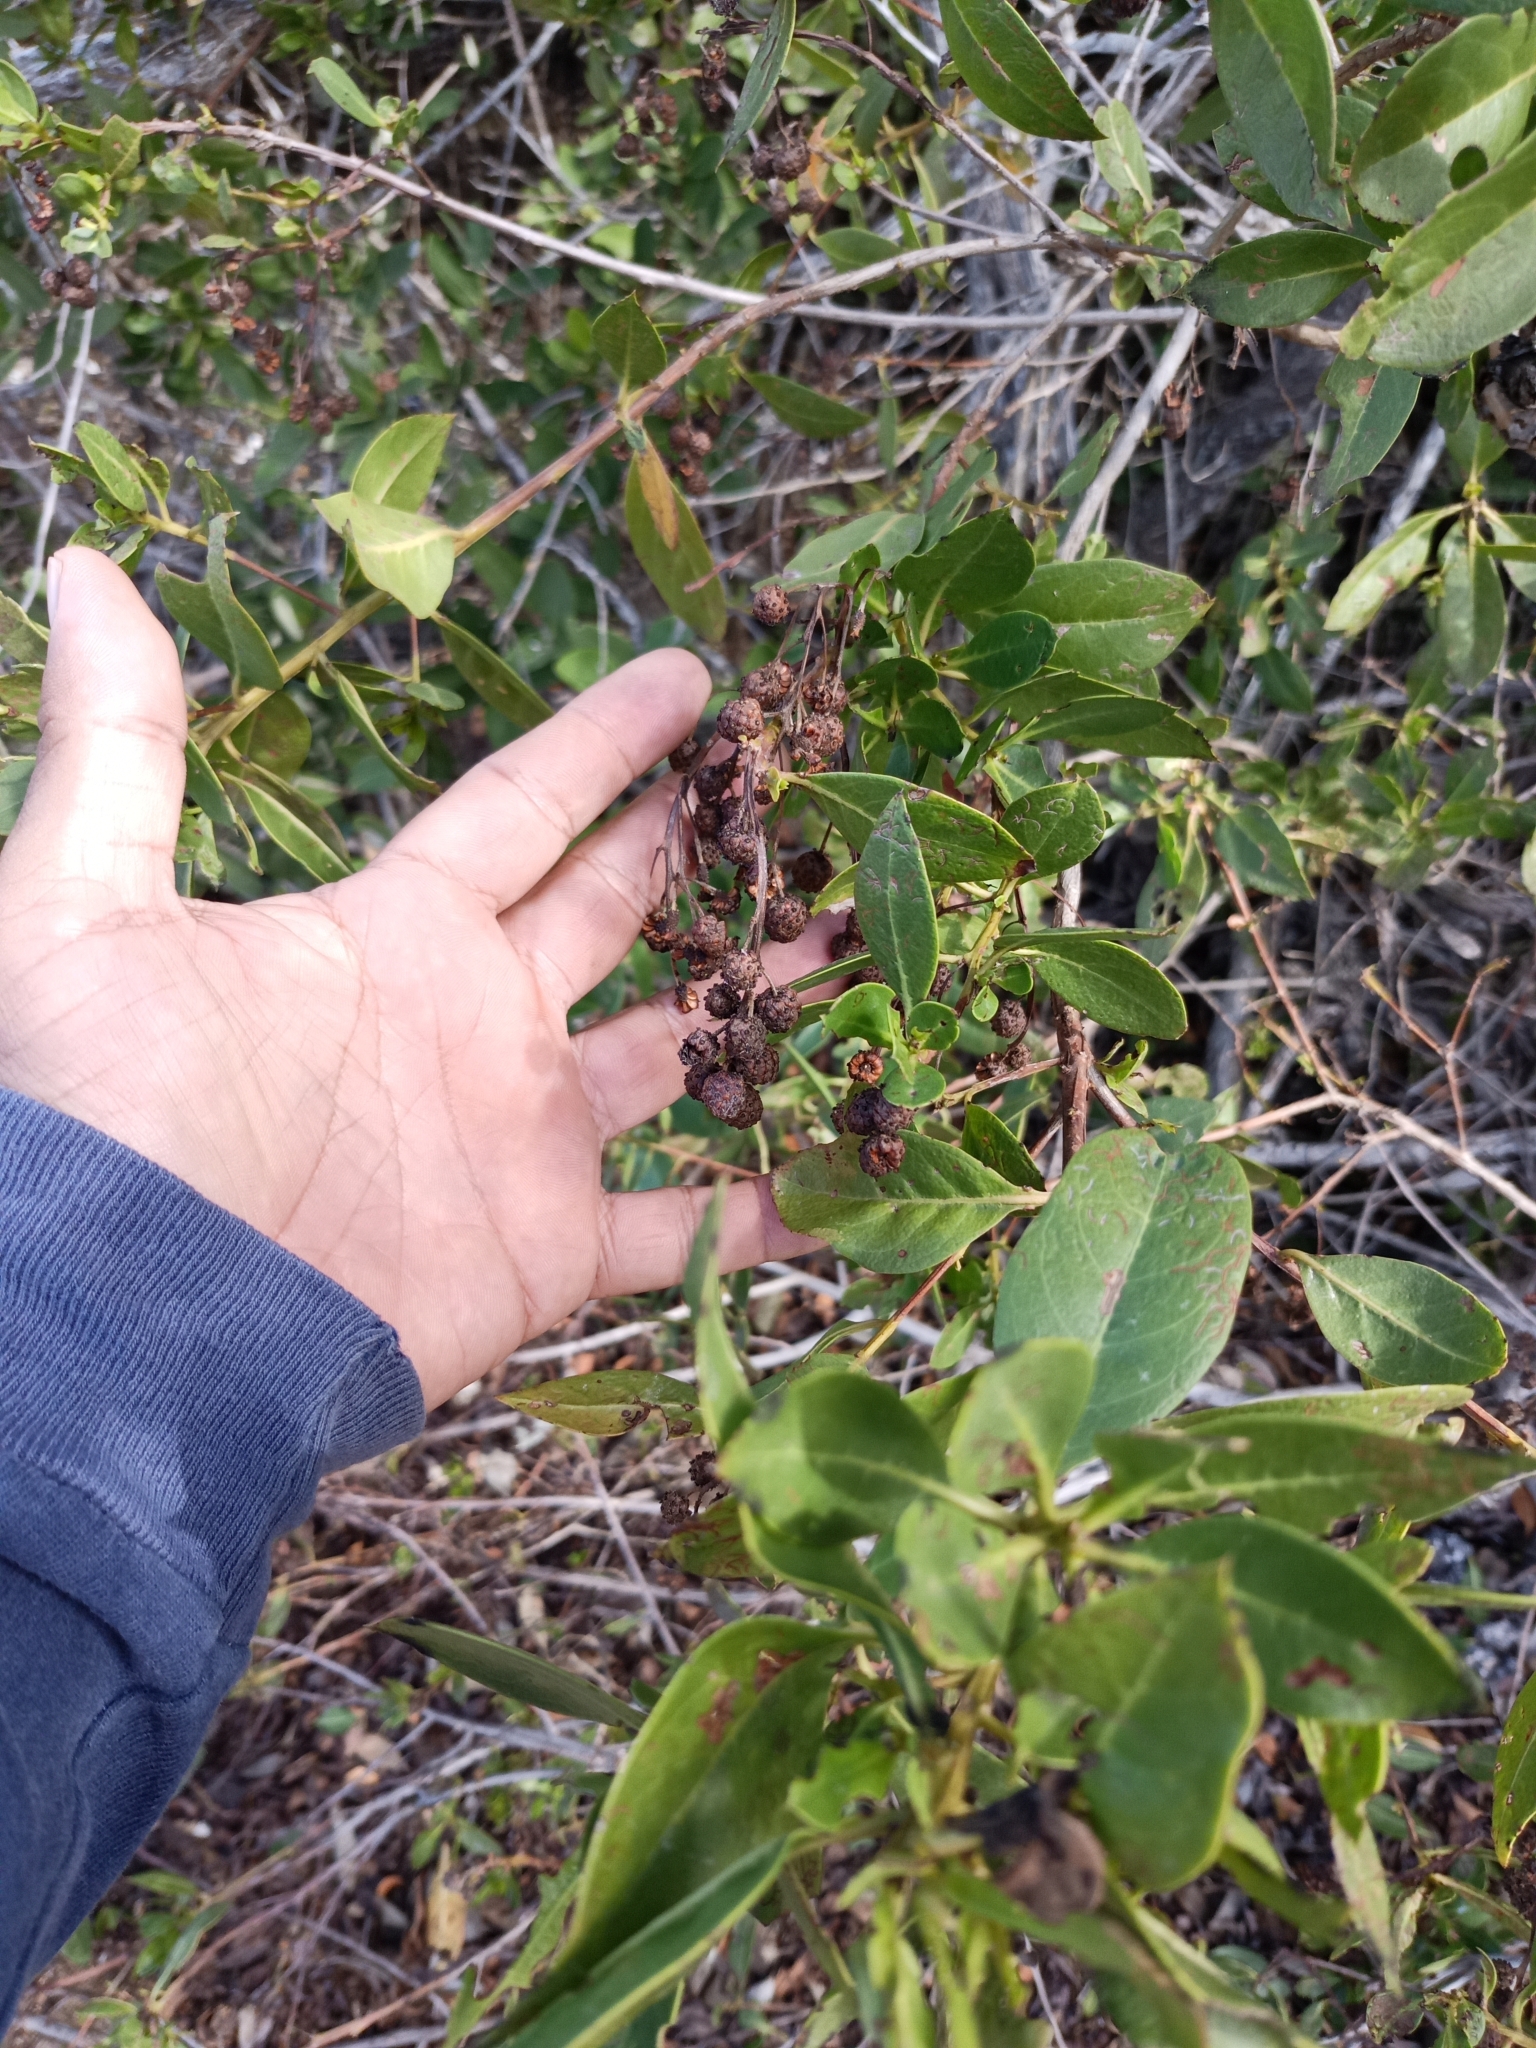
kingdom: Plantae
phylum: Tracheophyta
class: Magnoliopsida
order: Myrtales
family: Combretaceae
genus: Conocarpus
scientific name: Conocarpus erectus
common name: Button mangrove
